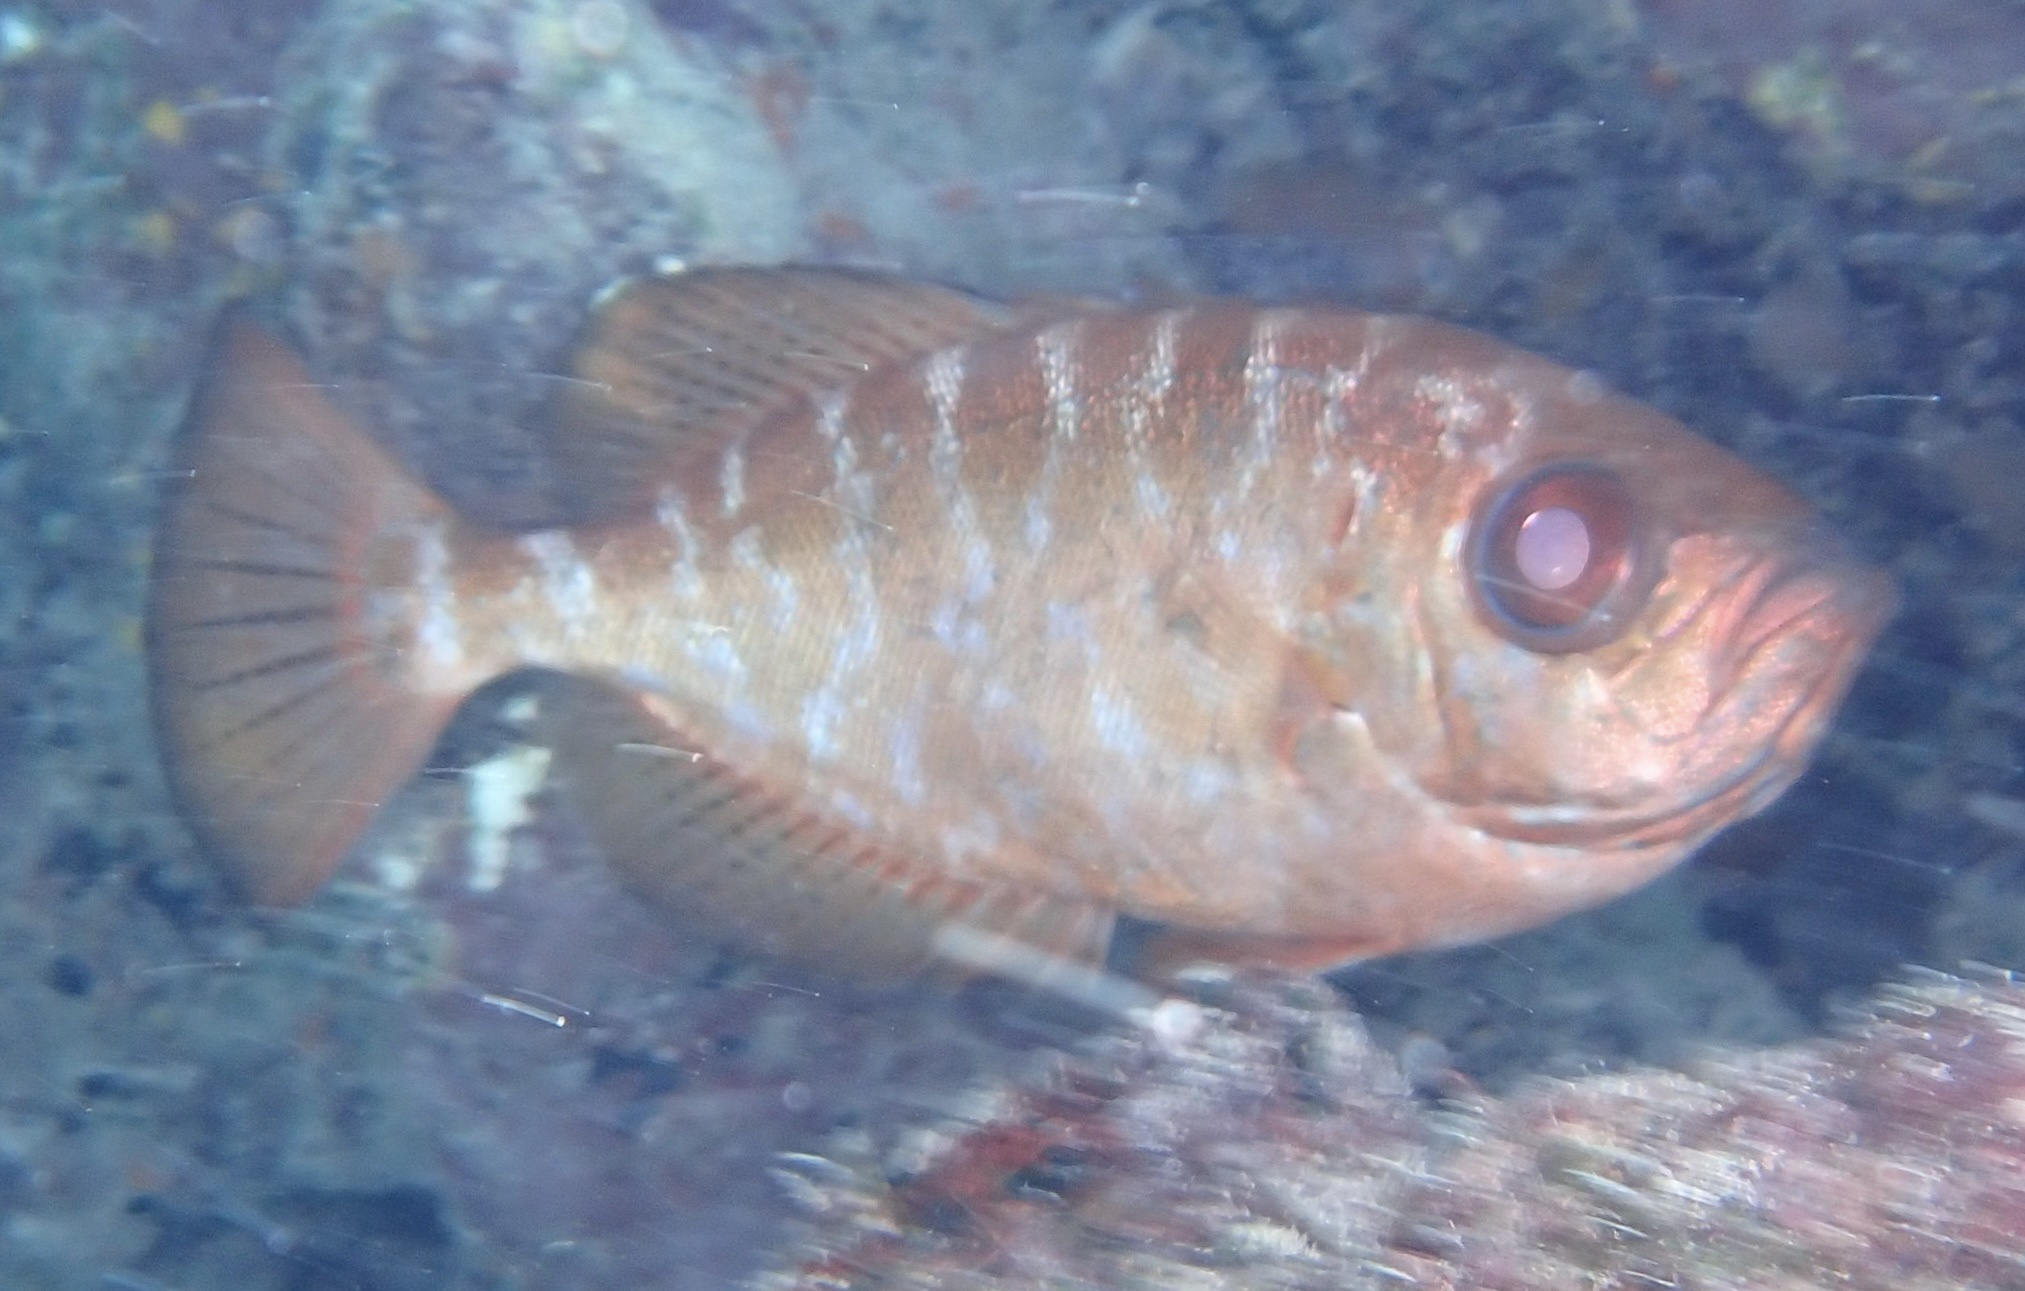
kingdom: Animalia
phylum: Chordata
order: Perciformes
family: Priacanthidae
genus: Heteropriacanthus
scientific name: Heteropriacanthus cruentatus
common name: Glasseye
